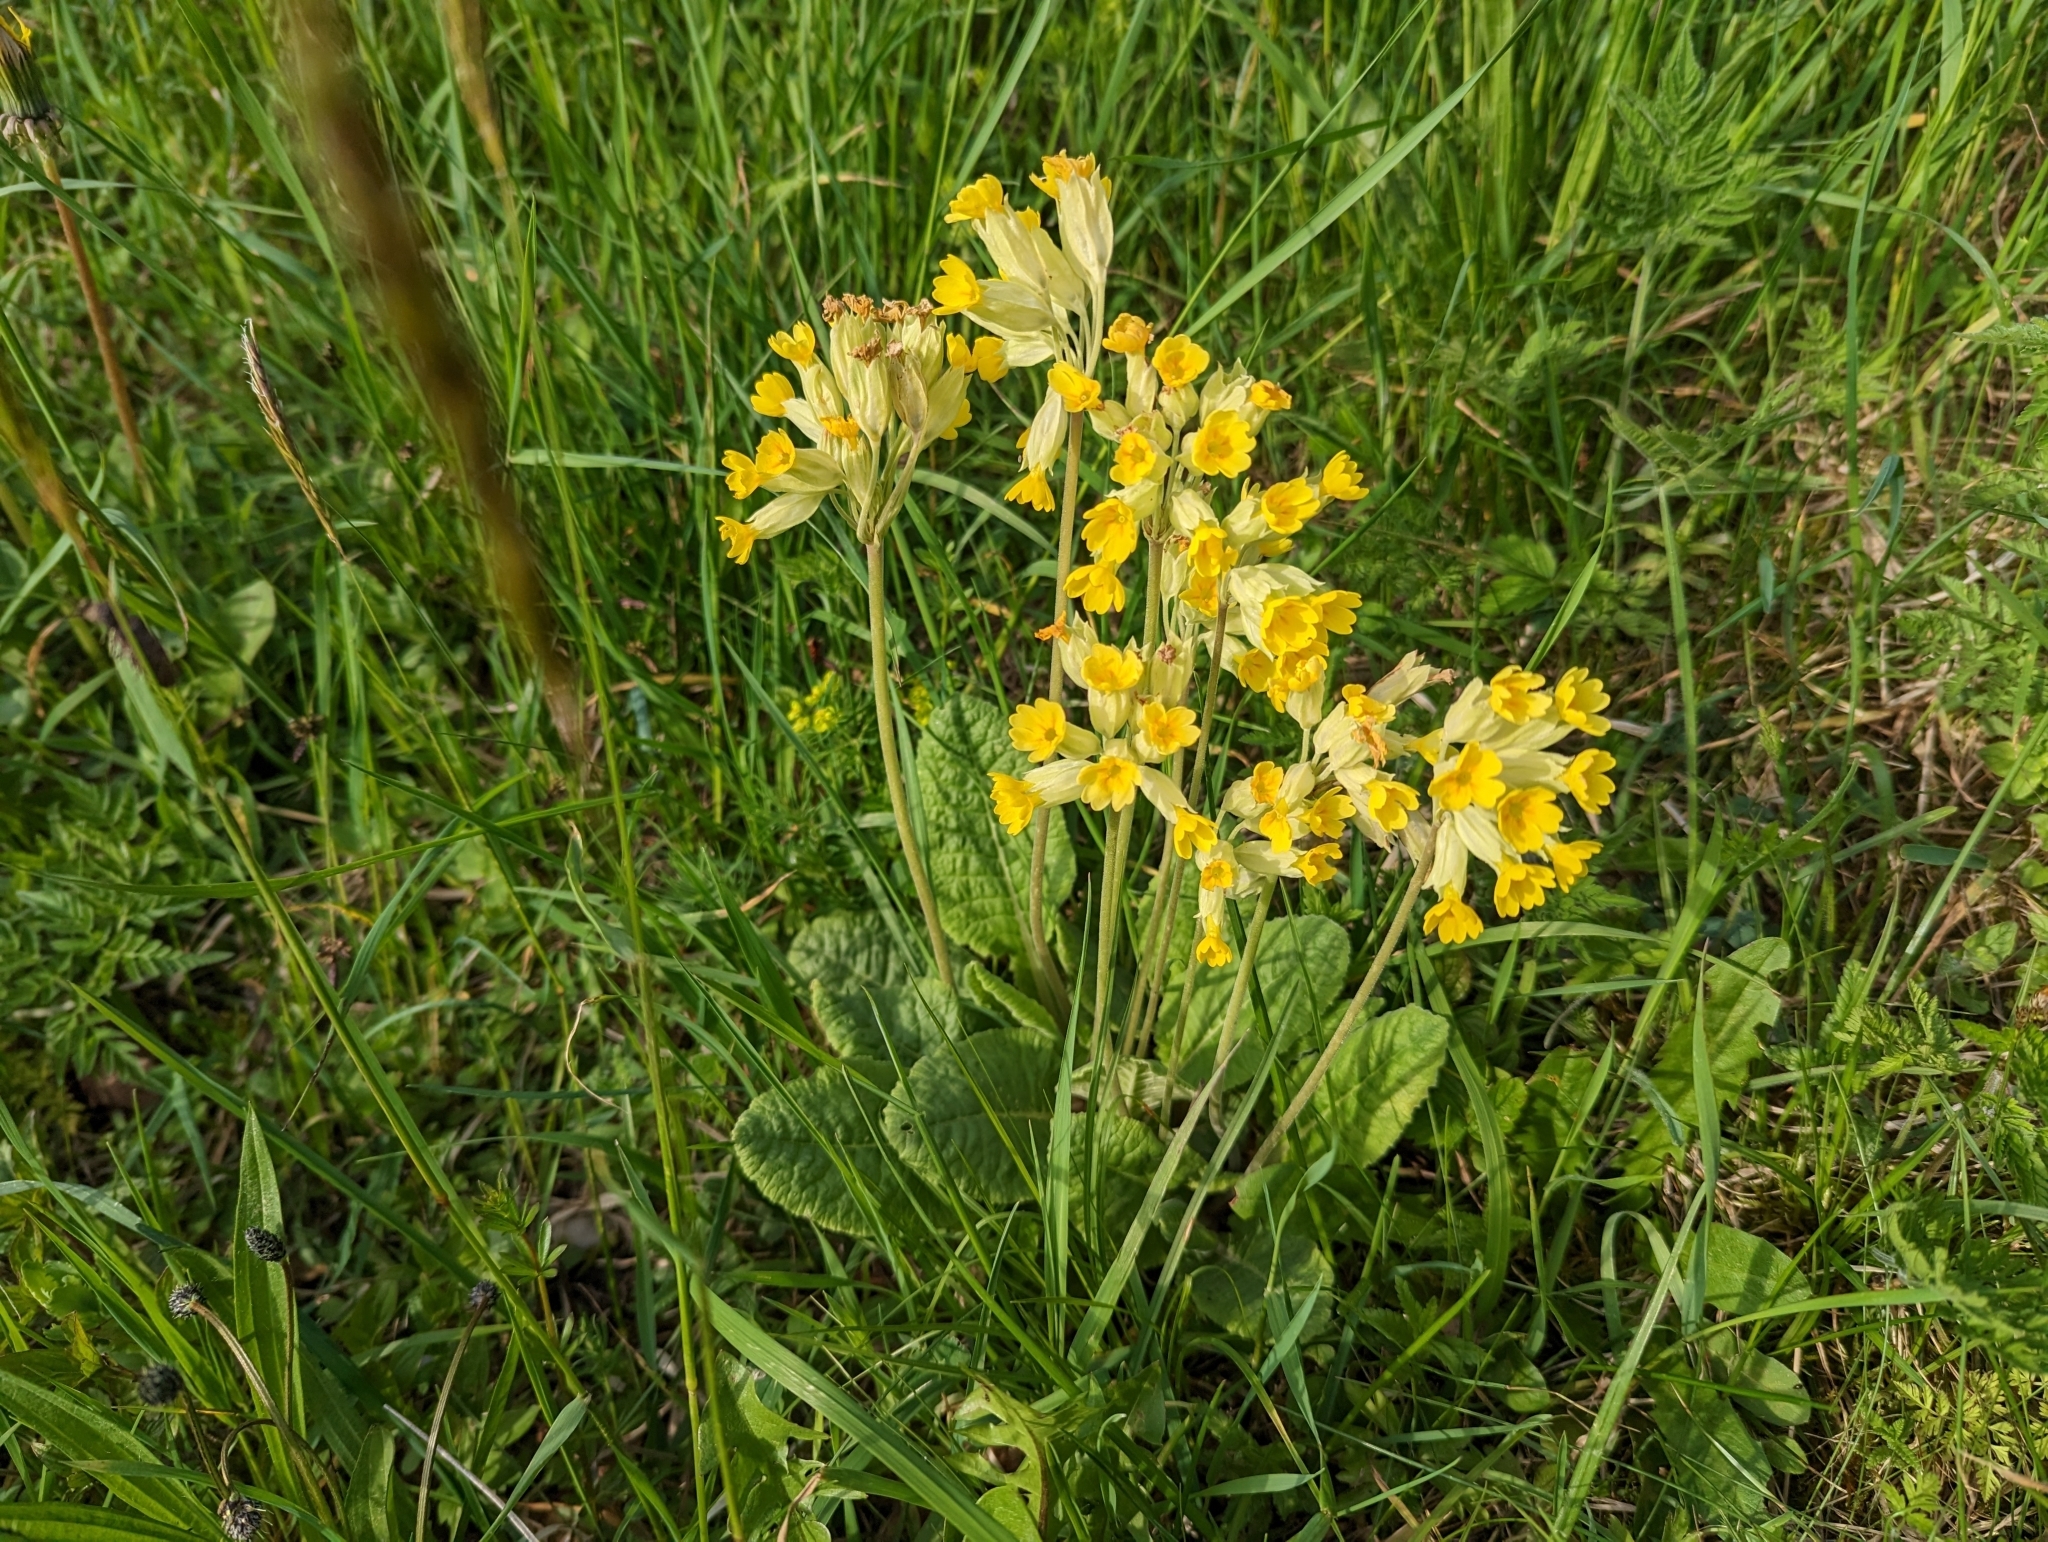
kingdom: Plantae
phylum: Tracheophyta
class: Magnoliopsida
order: Ericales
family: Primulaceae
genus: Primula
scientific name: Primula veris
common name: Cowslip
